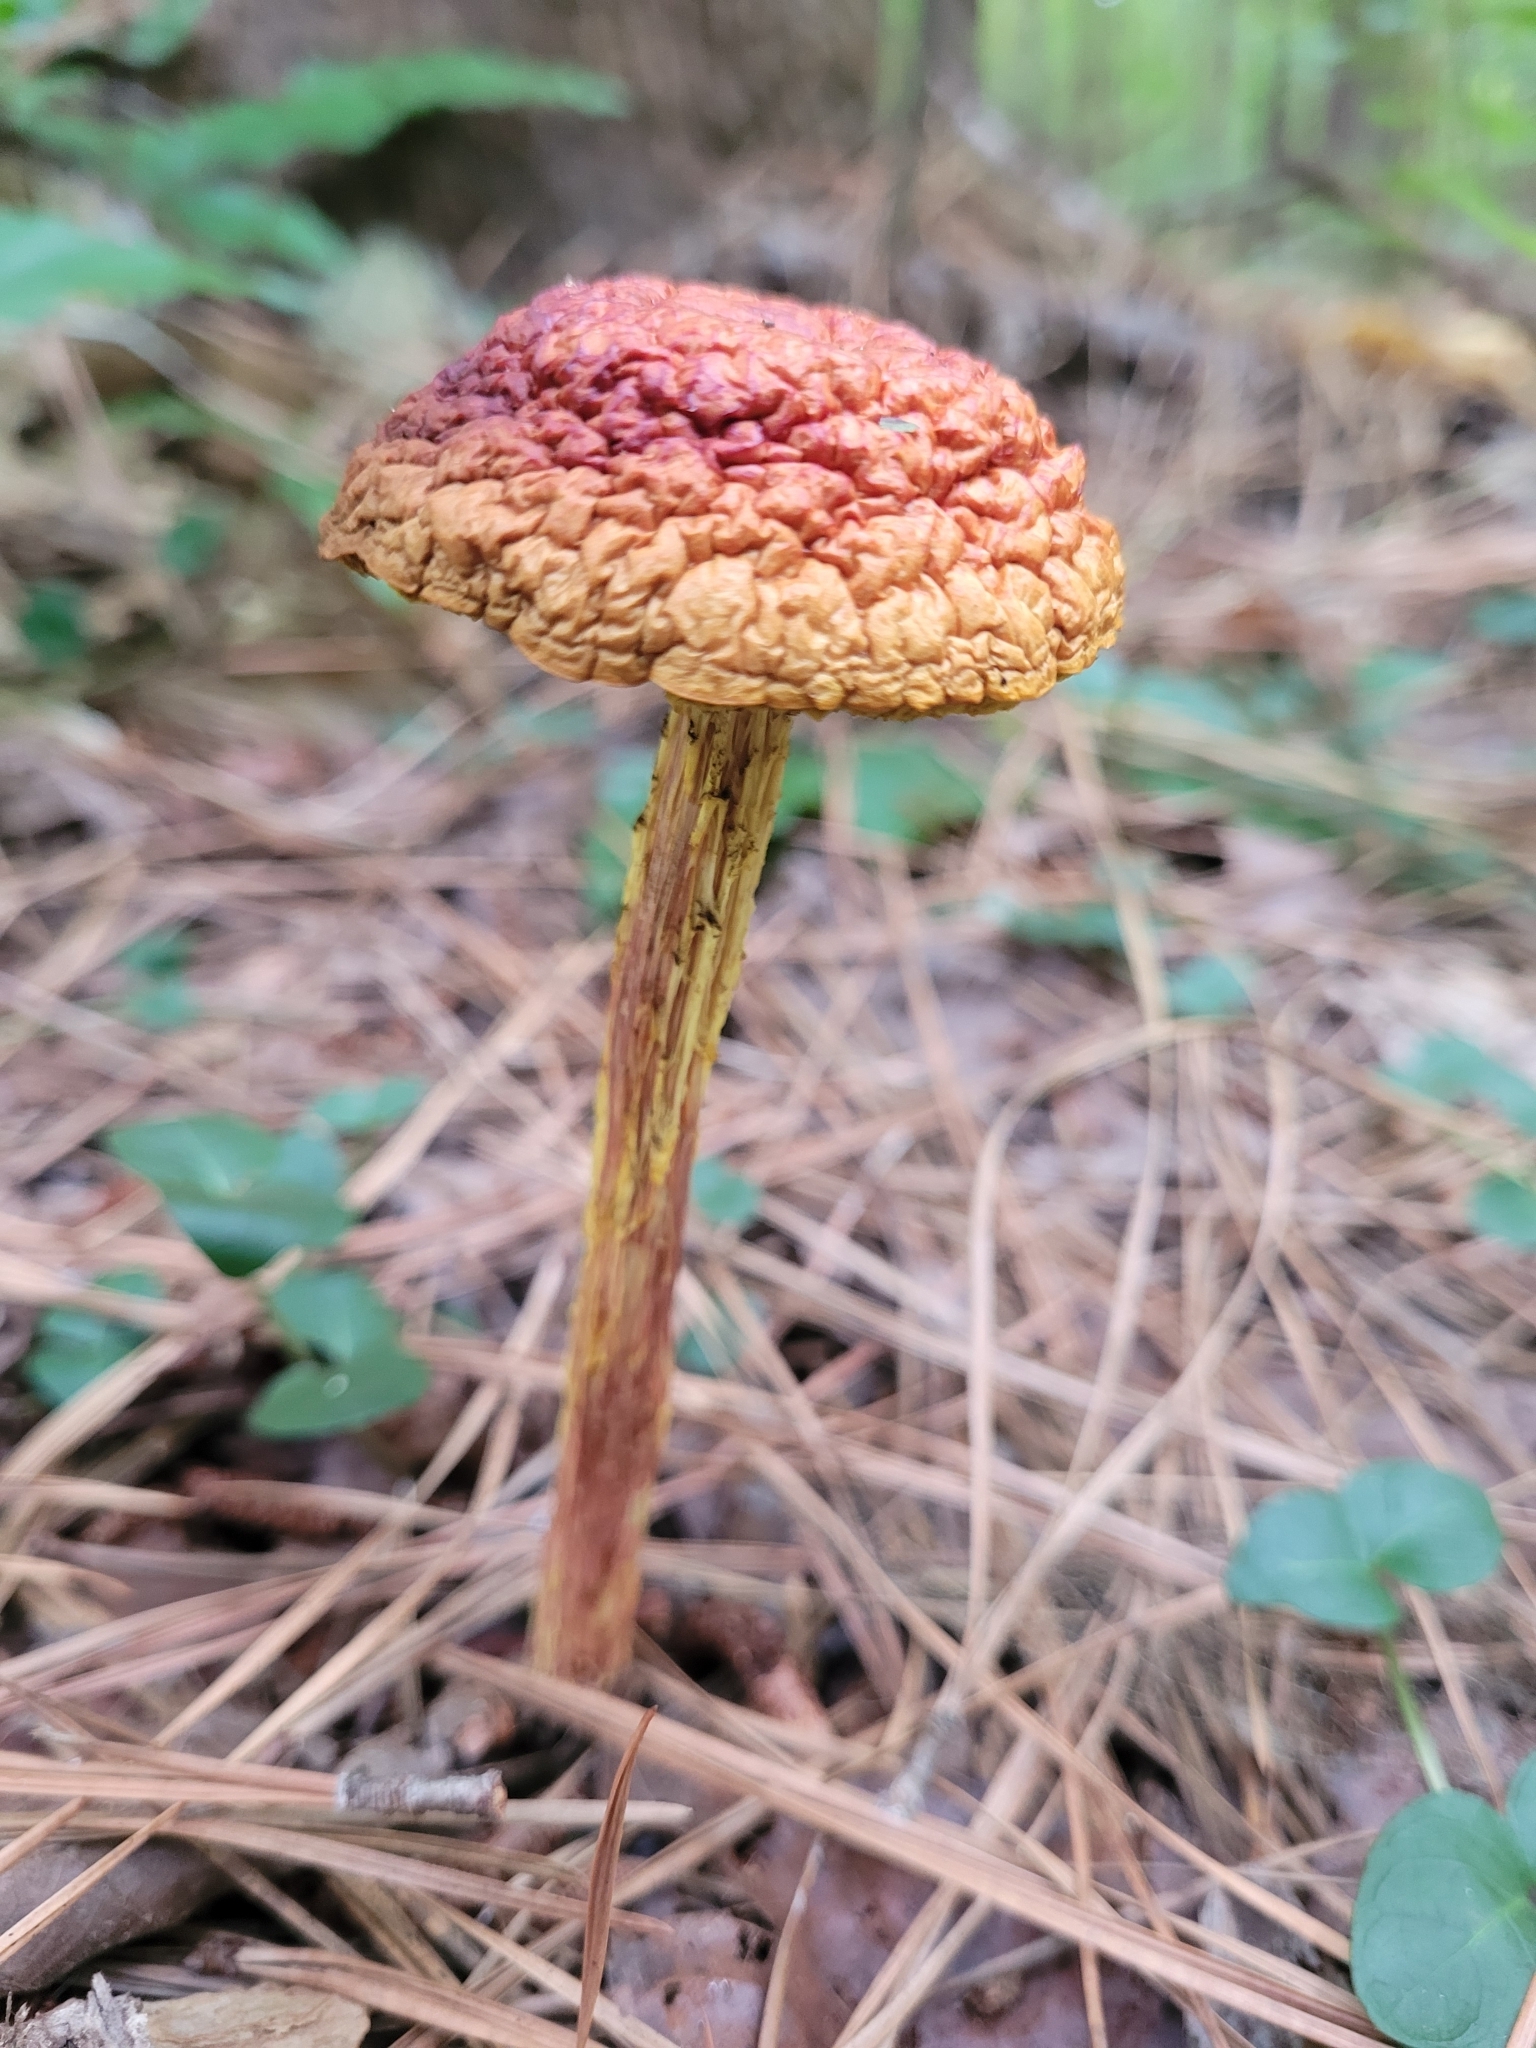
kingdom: Fungi
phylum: Basidiomycota
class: Agaricomycetes
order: Boletales
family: Boletaceae
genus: Aureoboletus
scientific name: Aureoboletus betula
